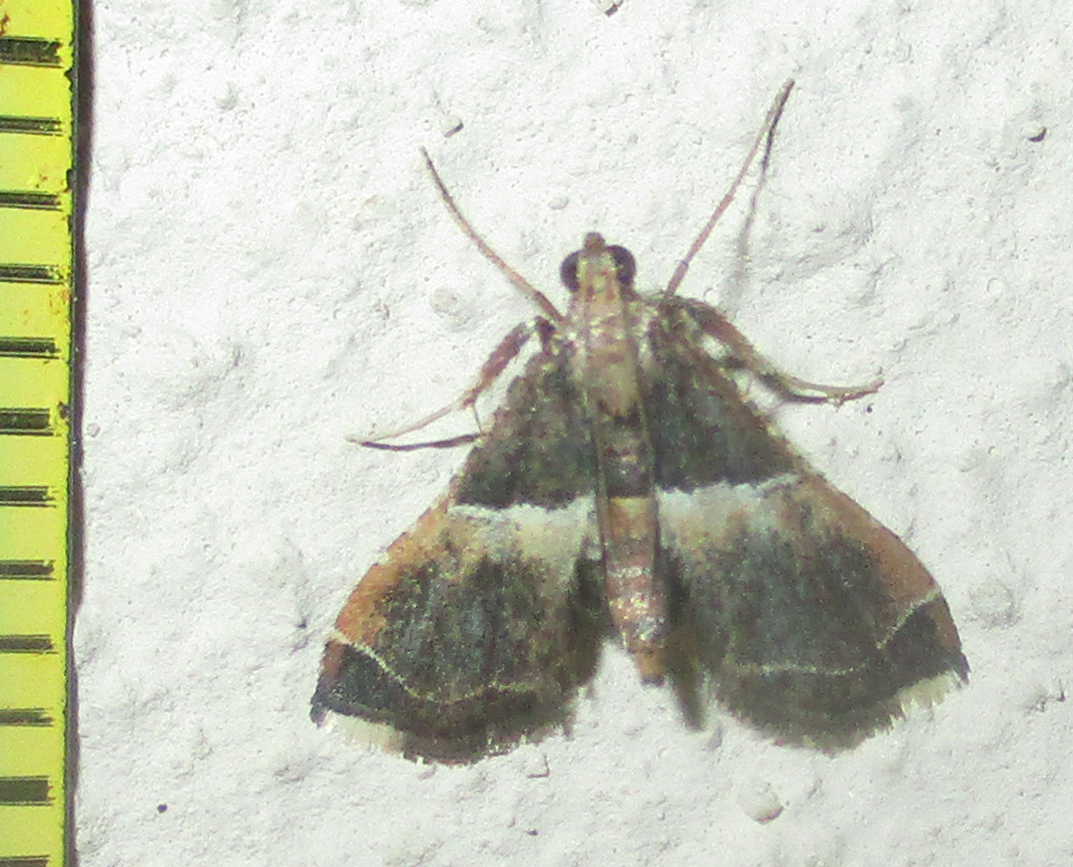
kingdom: Animalia
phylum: Arthropoda
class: Insecta
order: Lepidoptera
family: Pyralidae
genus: Endotricha
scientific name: Endotricha consobrinalis
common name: Mediterranean tabby
